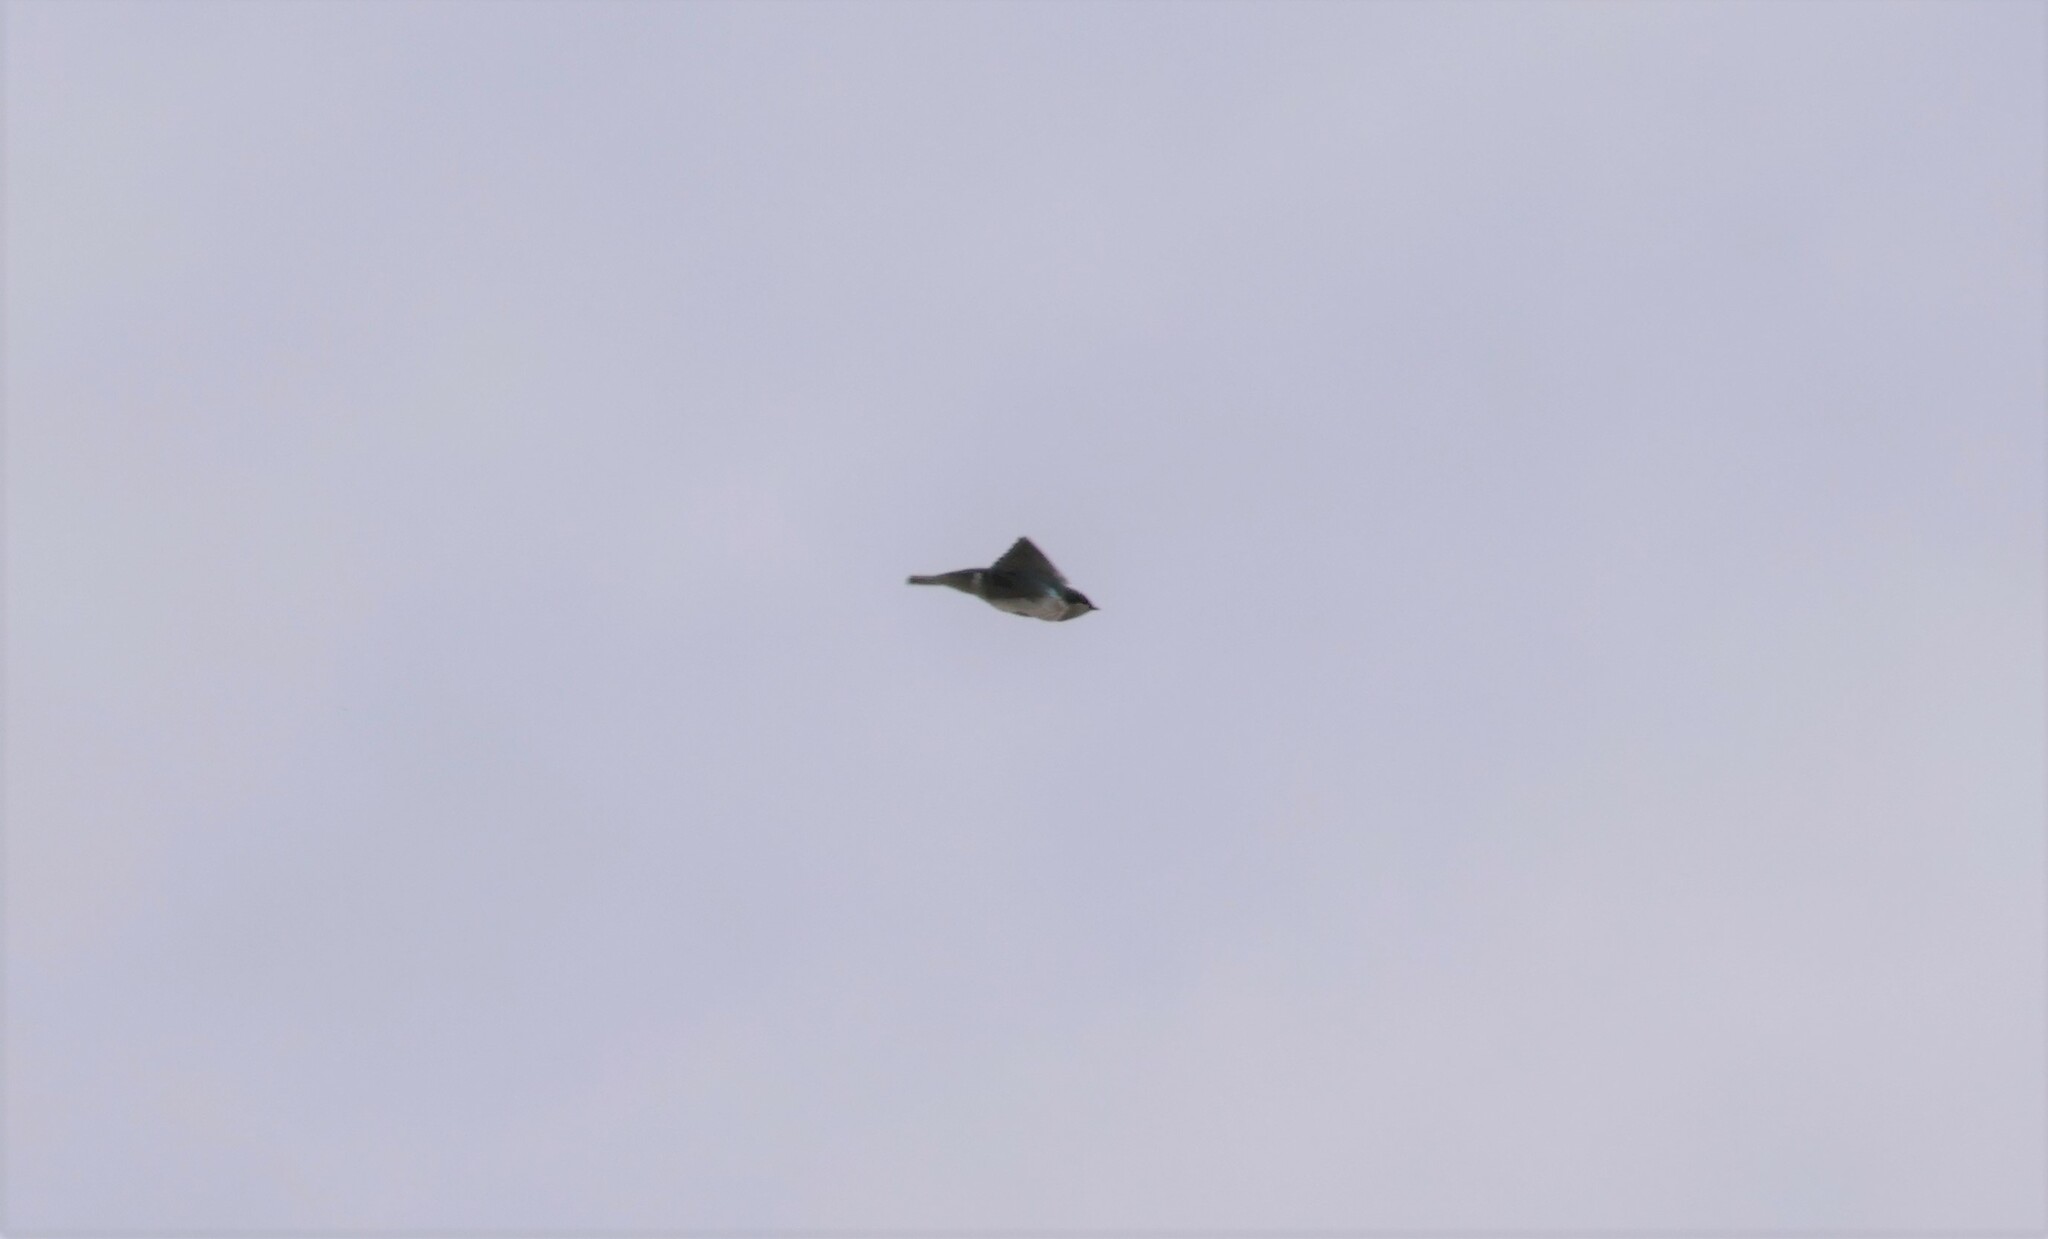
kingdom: Animalia
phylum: Chordata
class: Aves
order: Passeriformes
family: Hirundinidae
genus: Tachycineta
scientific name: Tachycineta bicolor
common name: Tree swallow
